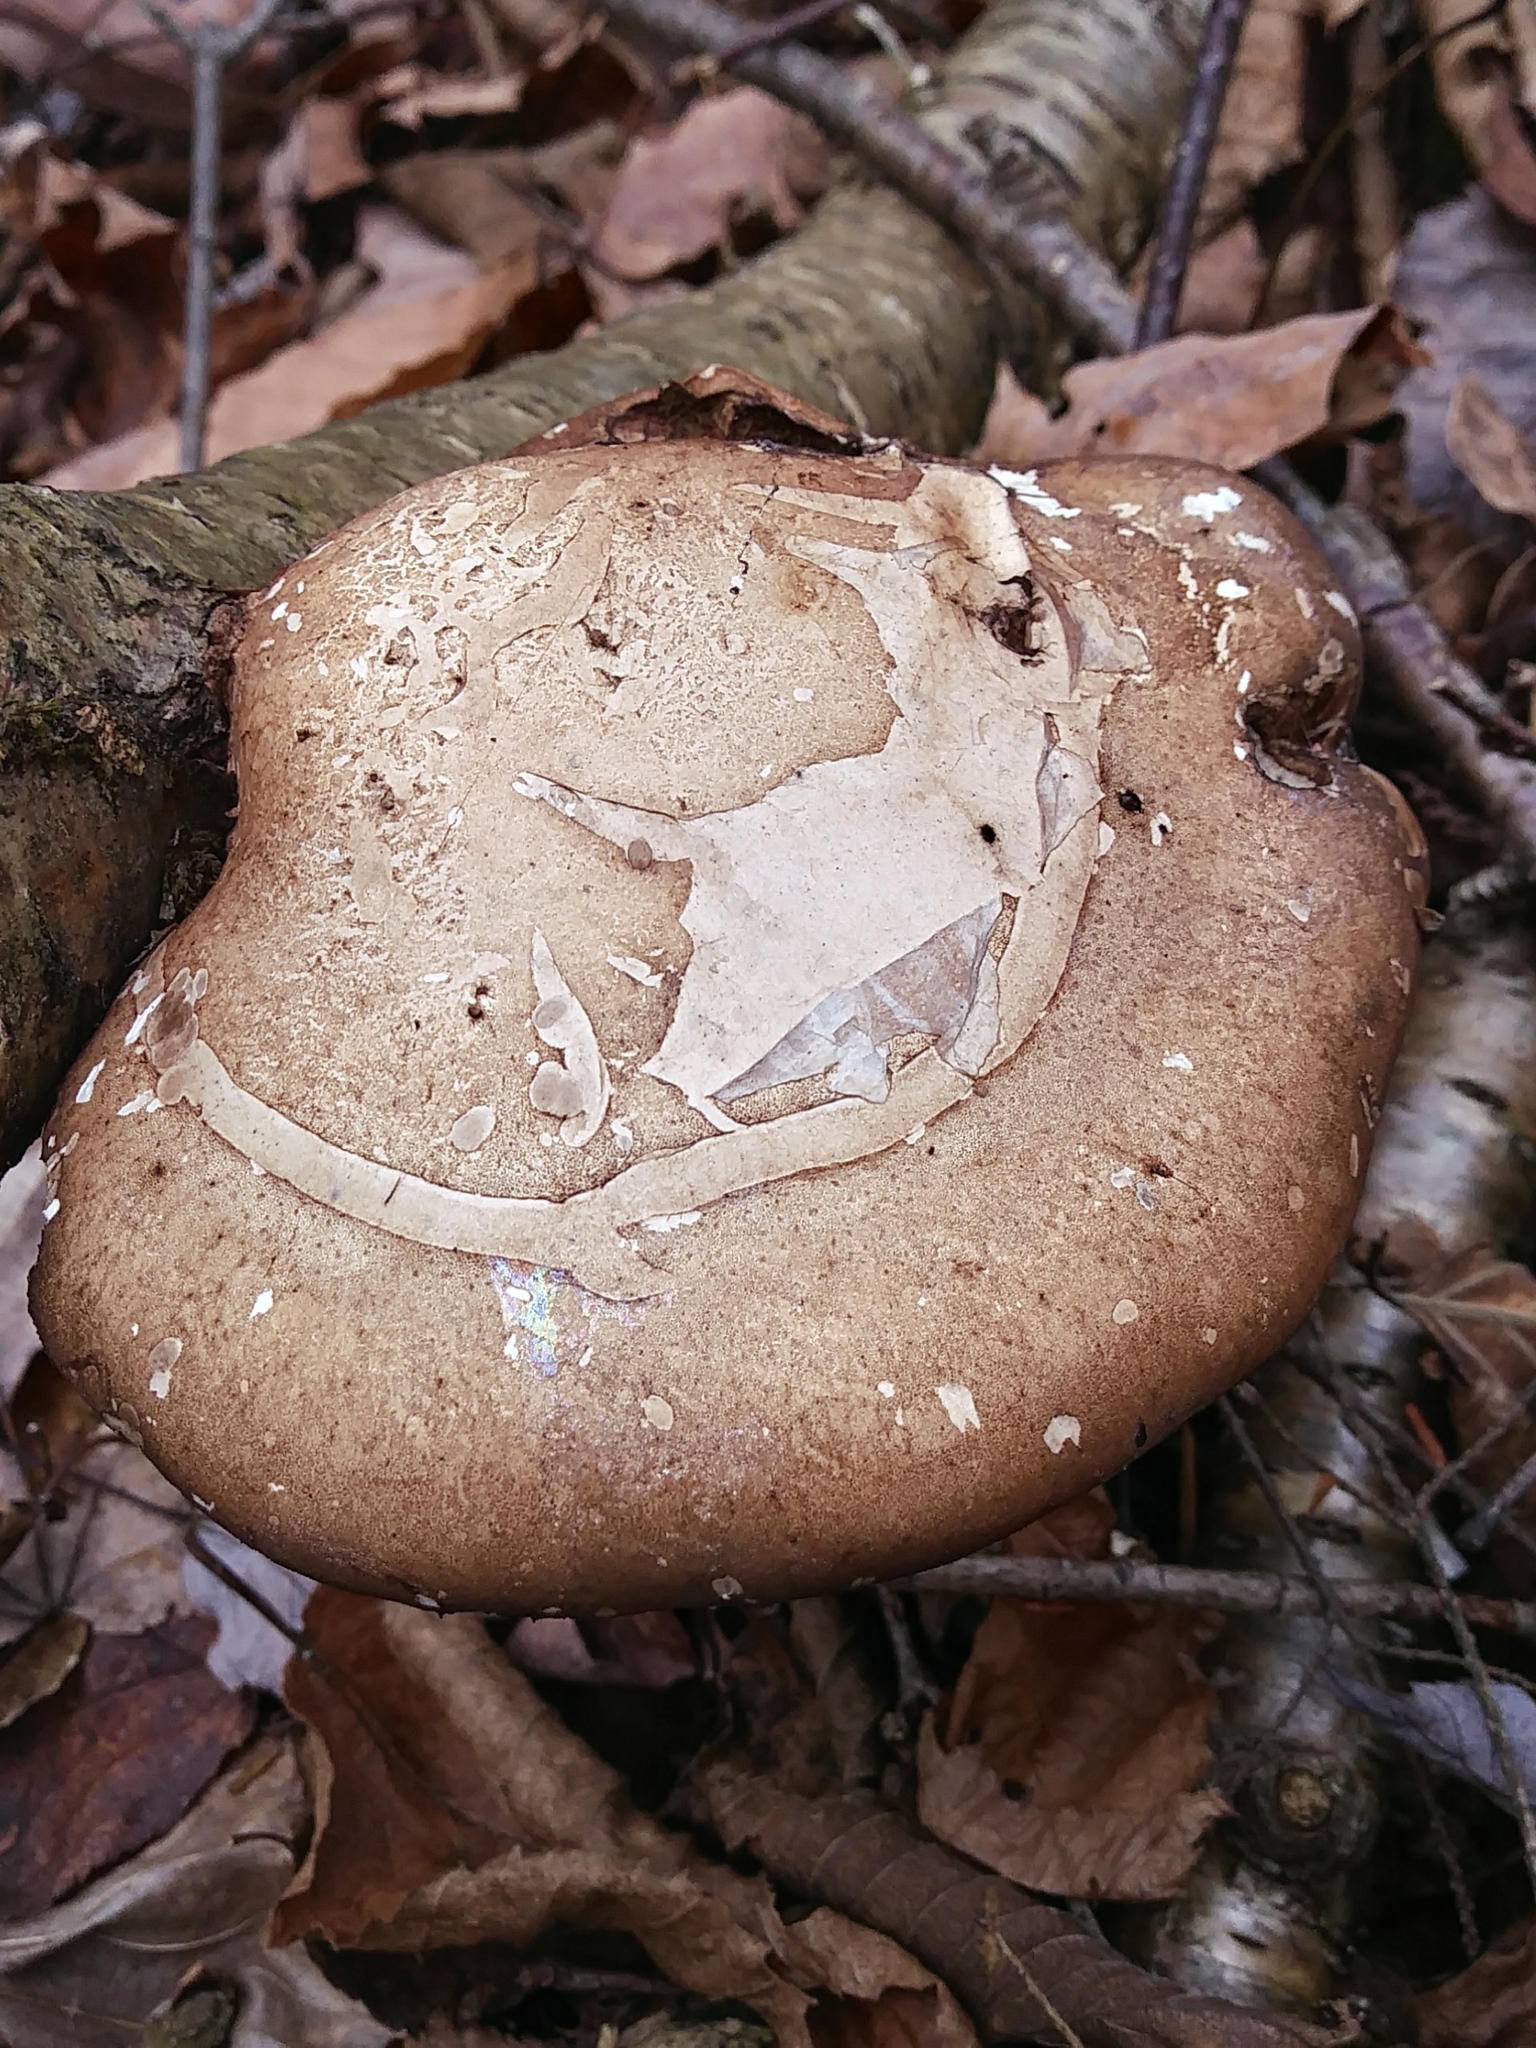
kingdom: Fungi
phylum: Basidiomycota
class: Agaricomycetes
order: Polyporales
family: Fomitopsidaceae
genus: Fomitopsis
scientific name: Fomitopsis betulina
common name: Birch polypore
